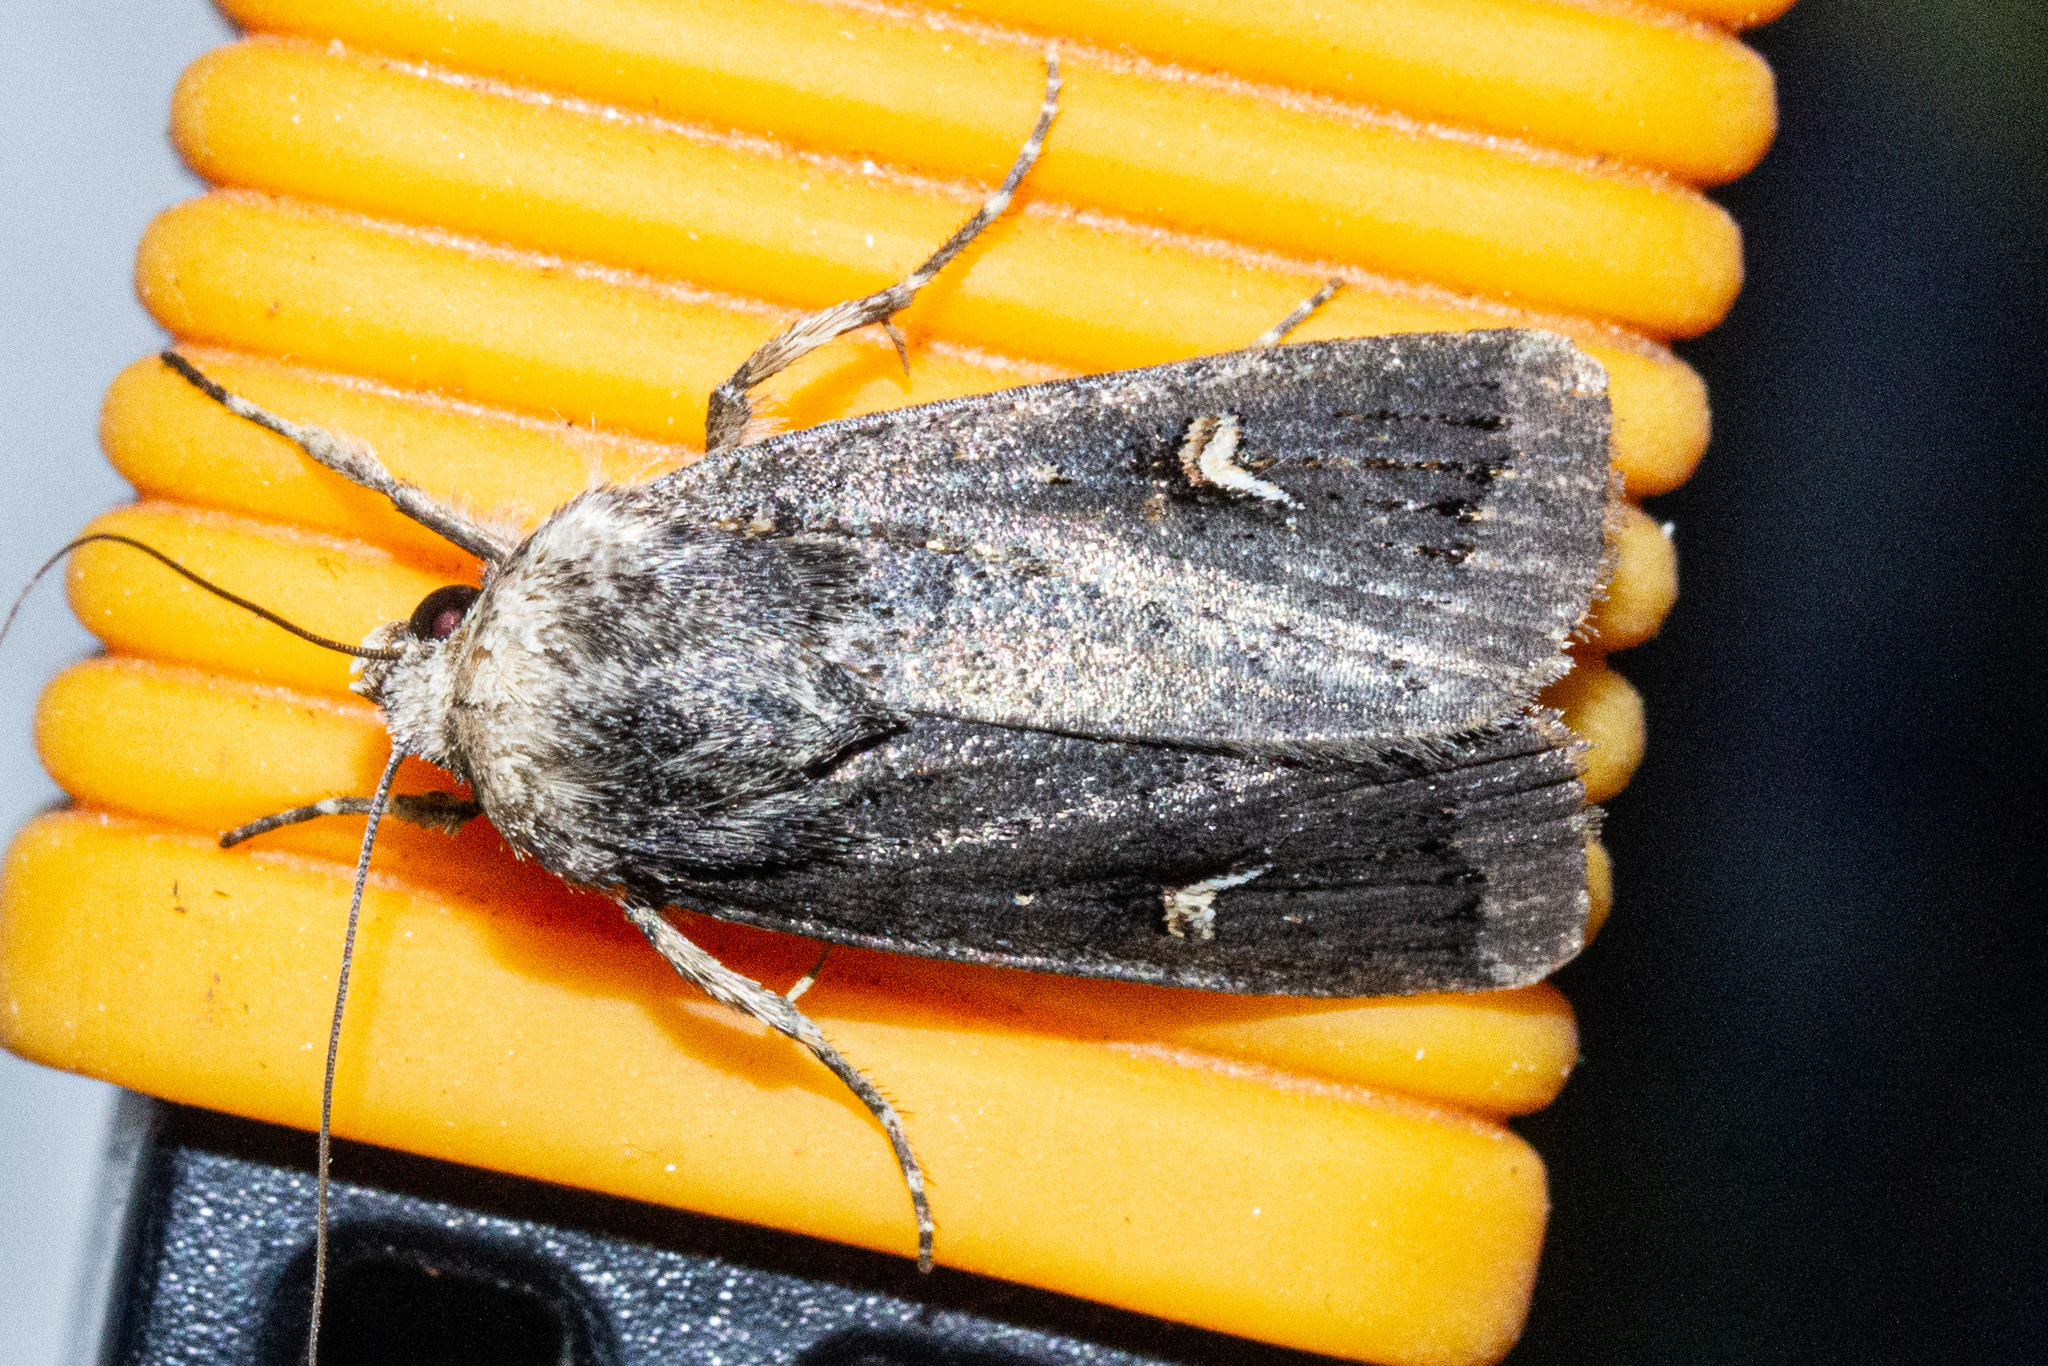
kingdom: Animalia
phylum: Arthropoda
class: Insecta
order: Lepidoptera
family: Noctuidae
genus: Proteuxoa
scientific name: Proteuxoa tetronycha
